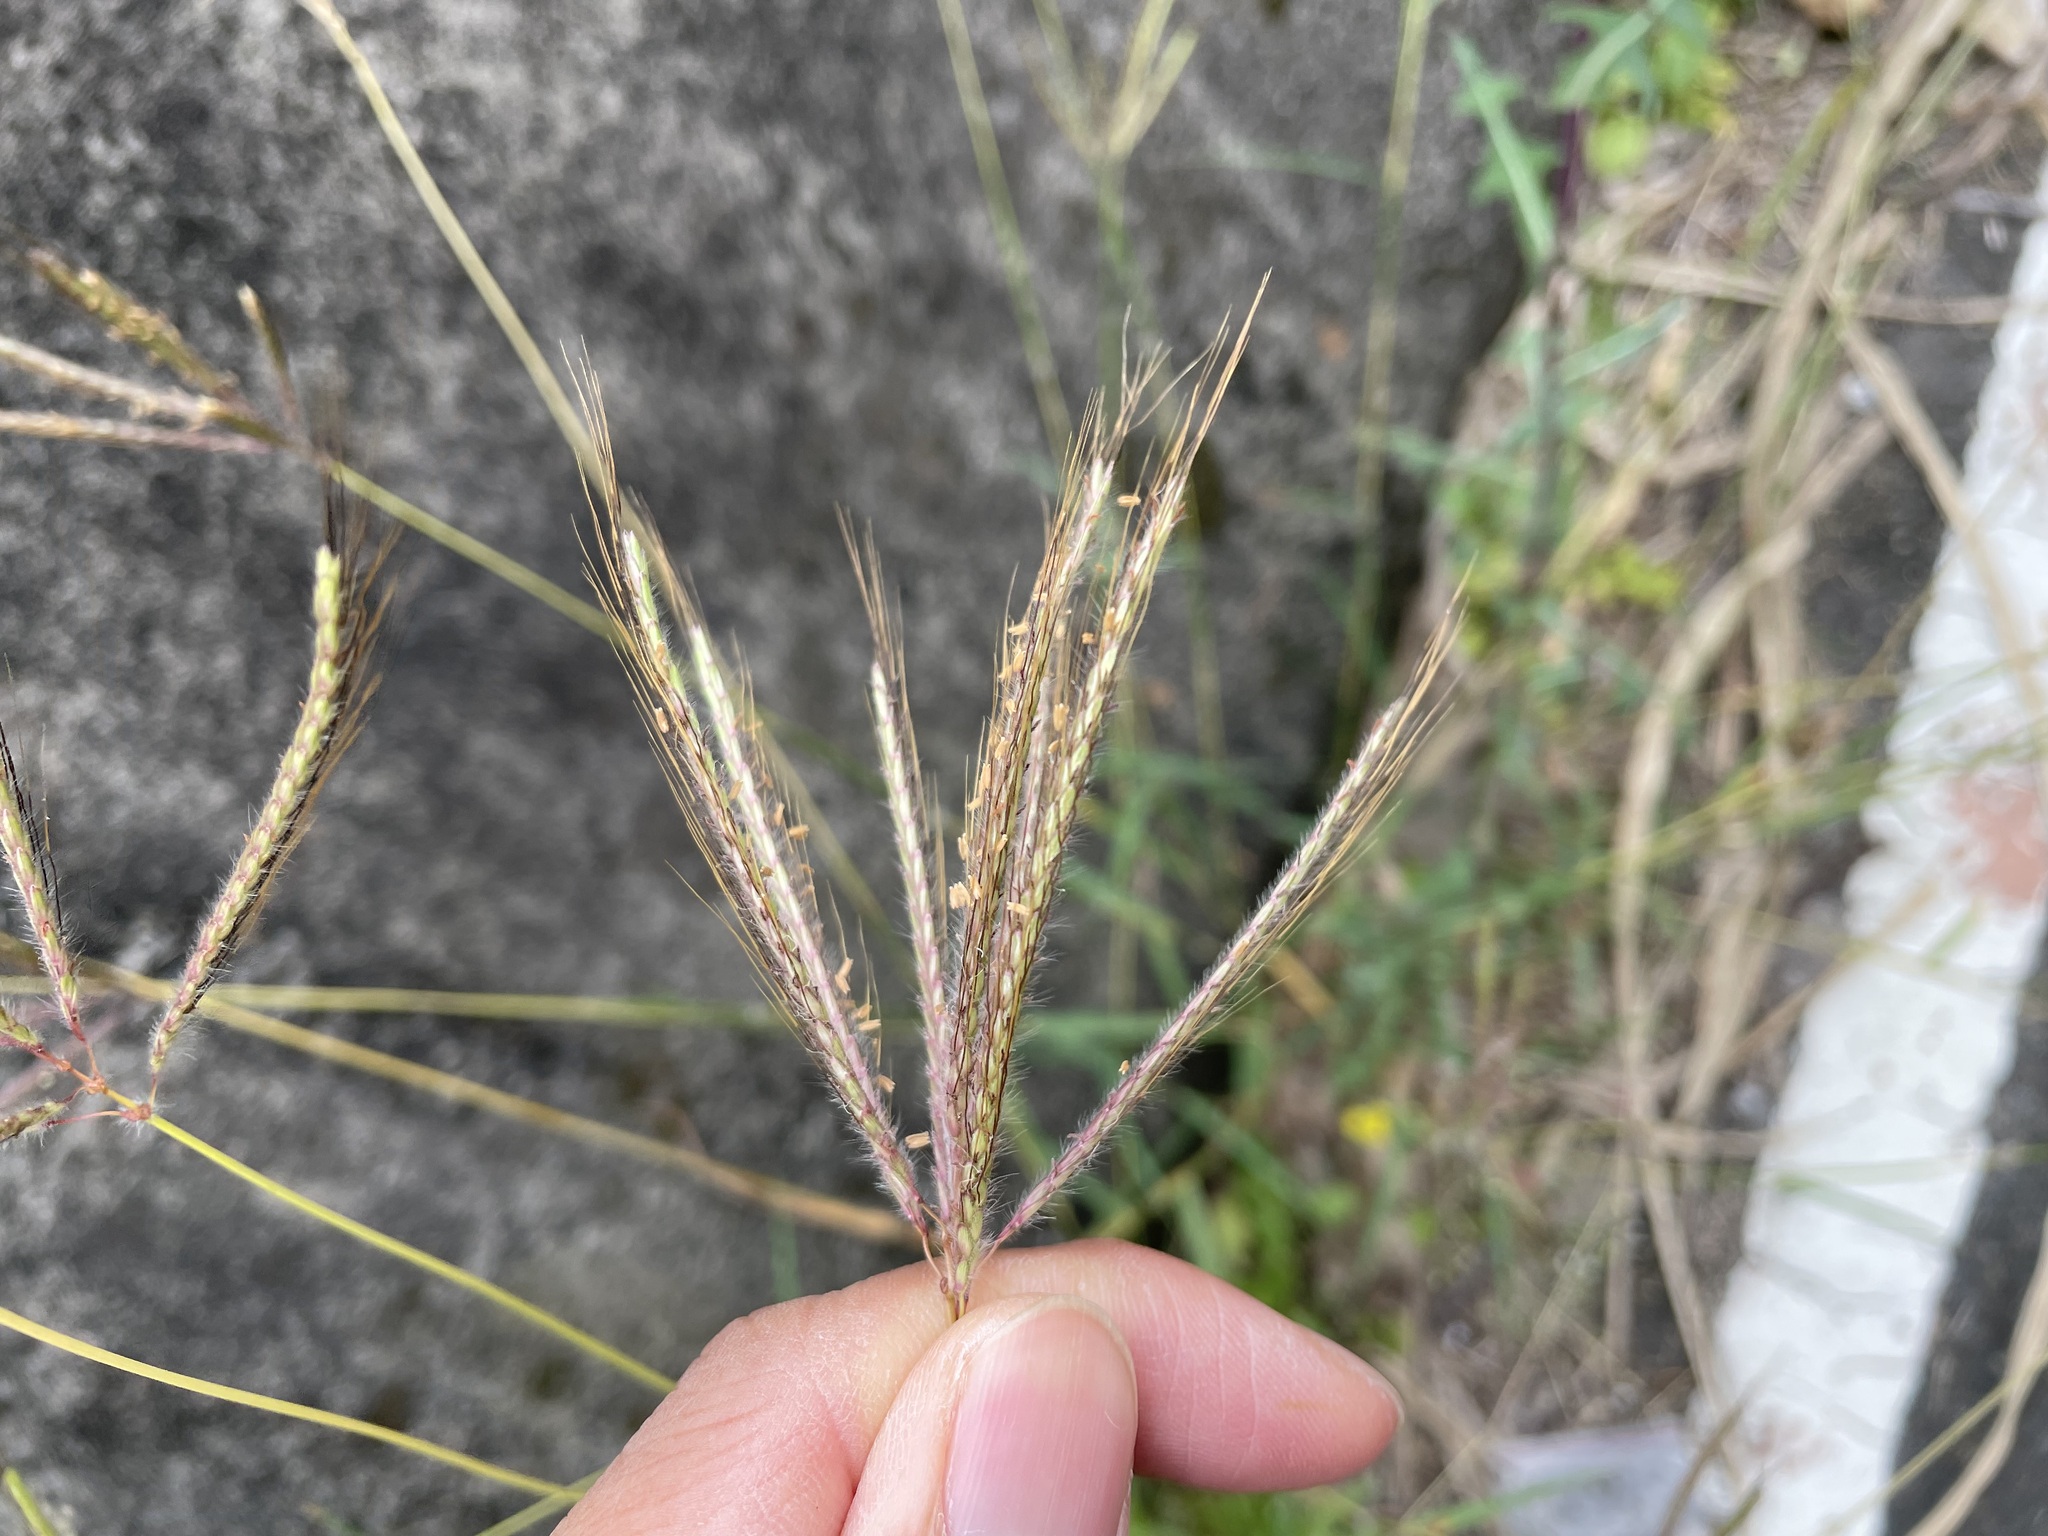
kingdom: Plantae
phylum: Tracheophyta
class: Liliopsida
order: Poales
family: Poaceae
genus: Dichanthium
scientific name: Dichanthium annulatum
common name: Kleberg's bluestem
